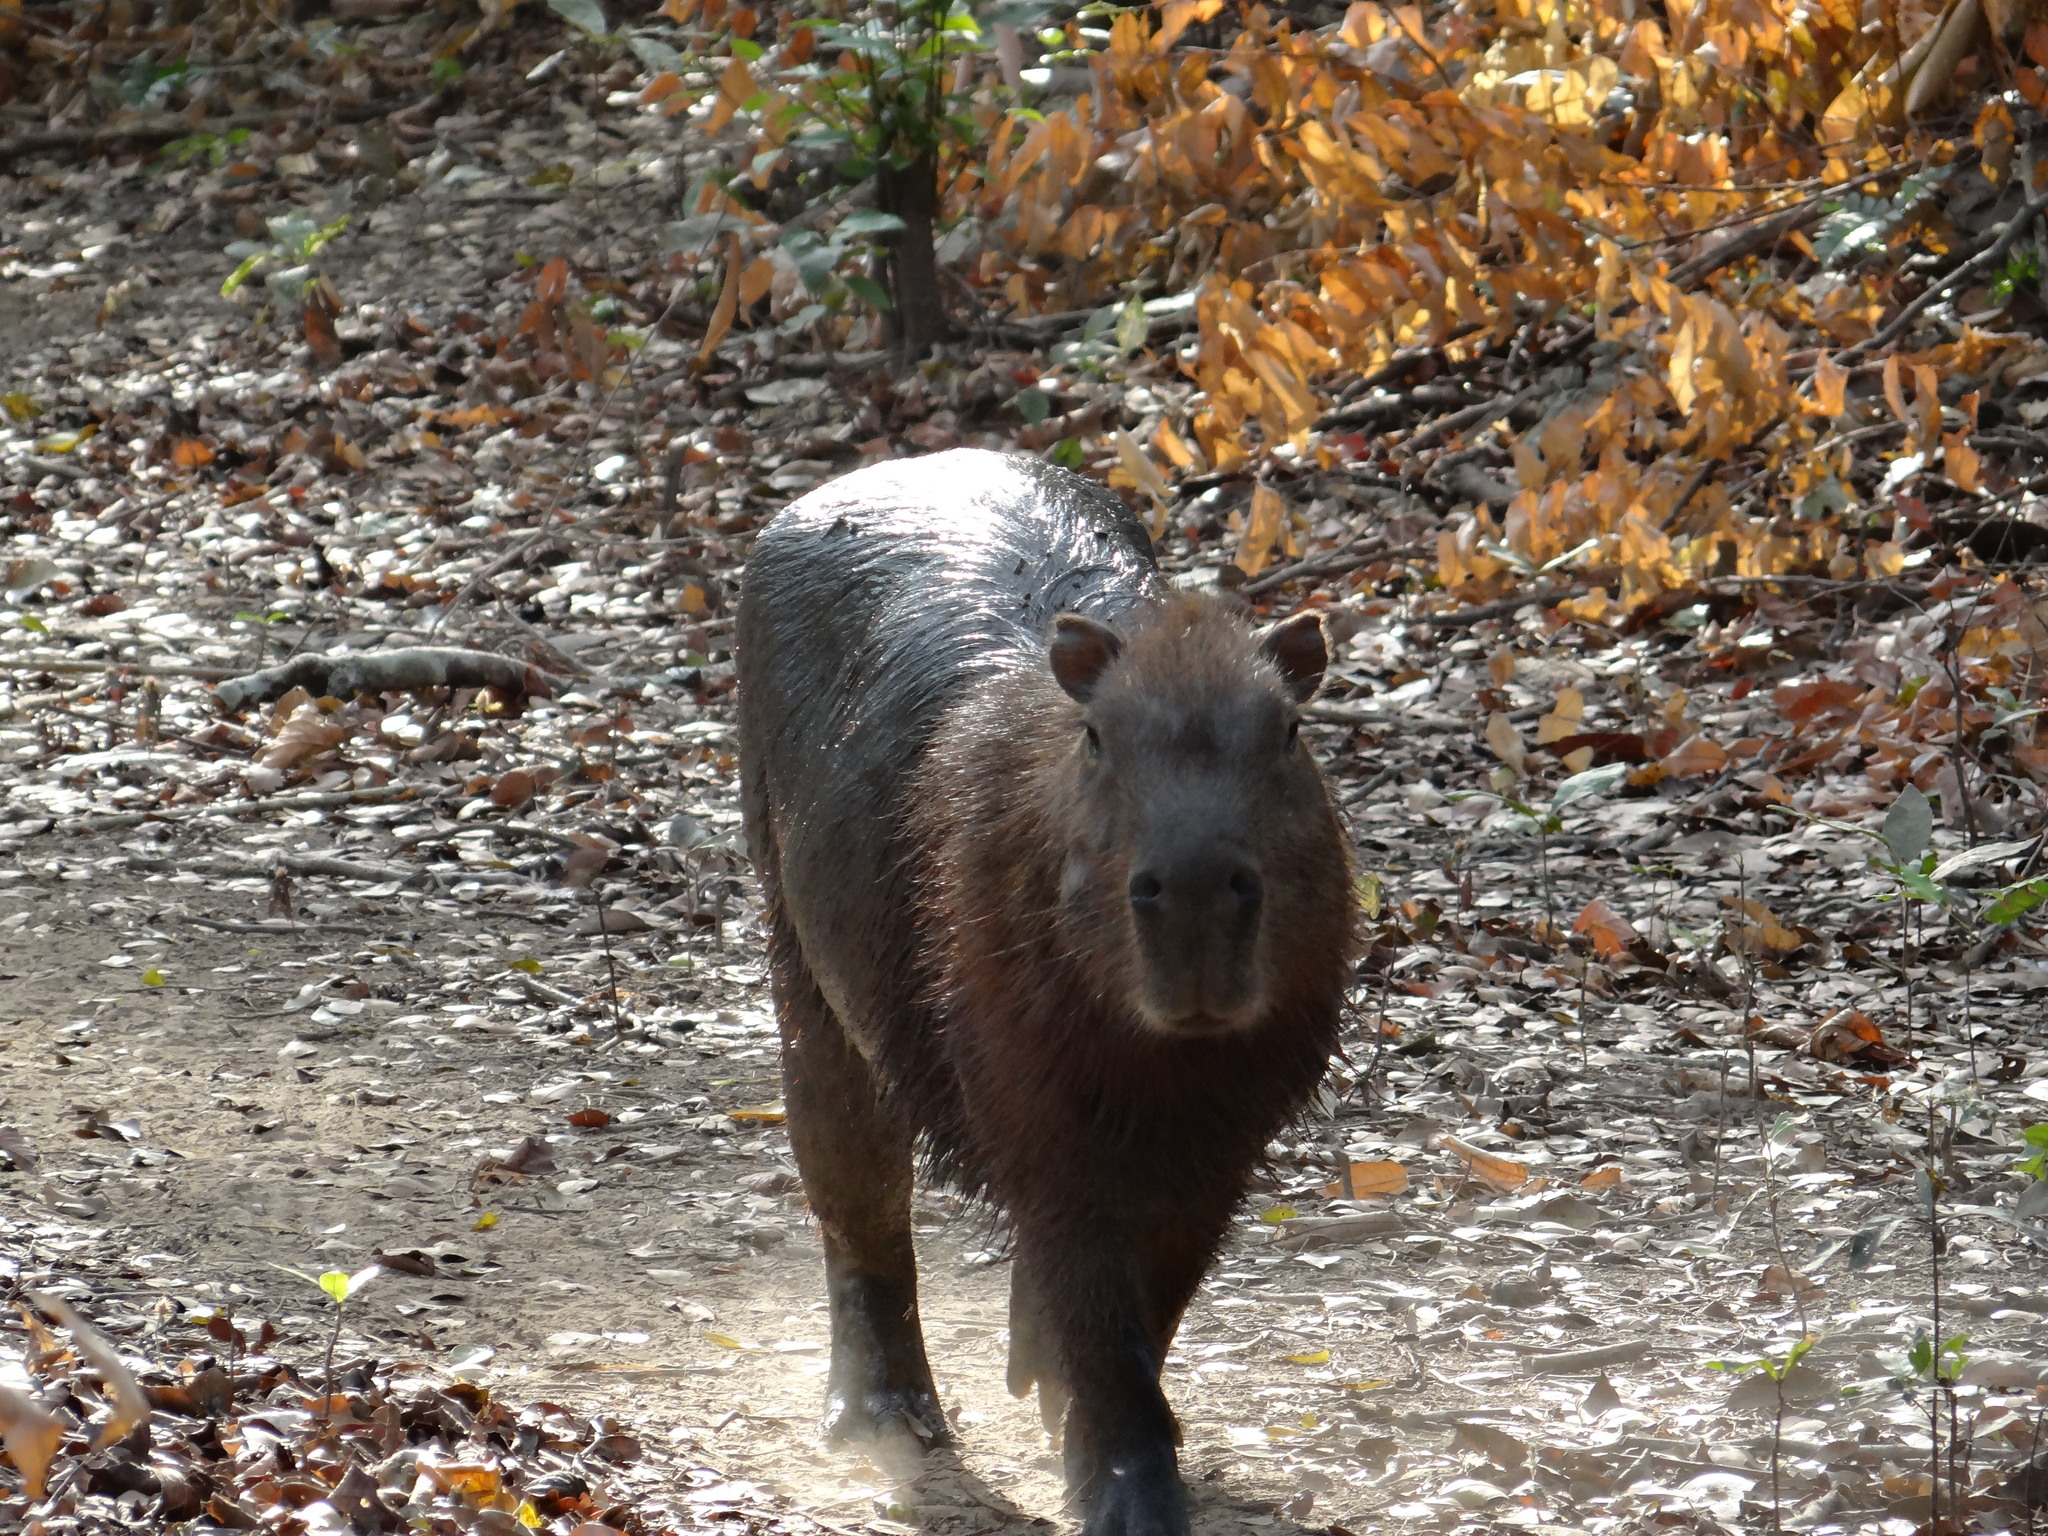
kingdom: Animalia
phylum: Chordata
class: Mammalia
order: Rodentia
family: Caviidae
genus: Hydrochoerus
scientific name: Hydrochoerus hydrochaeris
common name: Capybara
